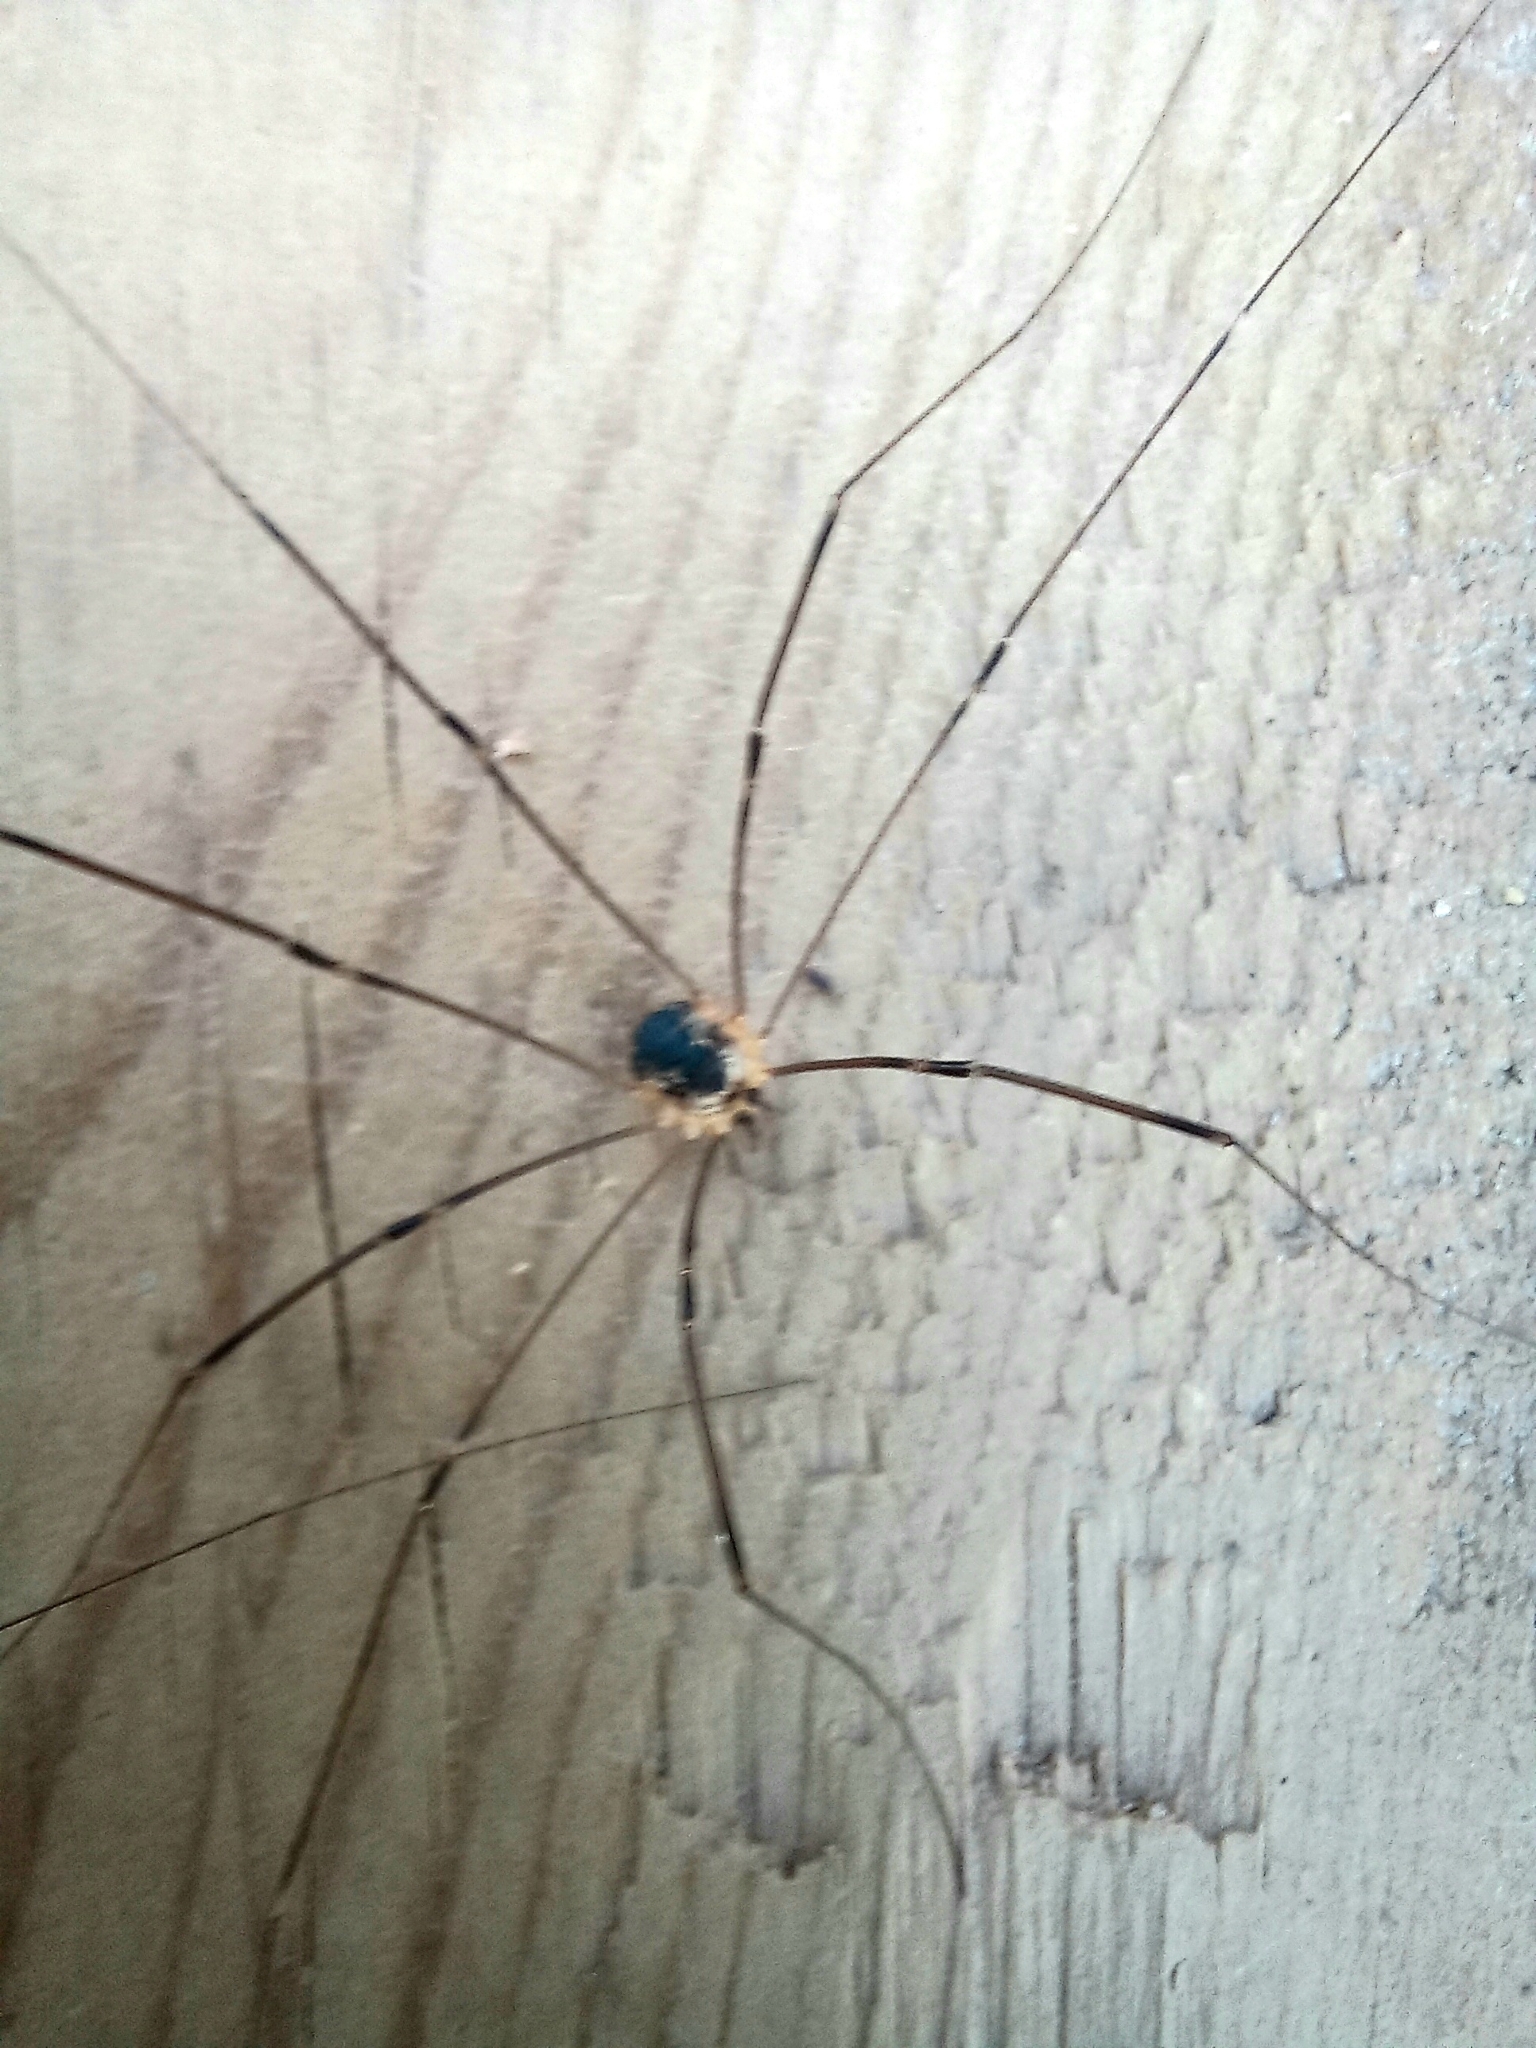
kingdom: Animalia
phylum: Arthropoda
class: Arachnida
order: Opiliones
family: Sclerosomatidae
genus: Leiobunum
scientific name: Leiobunum gracile
